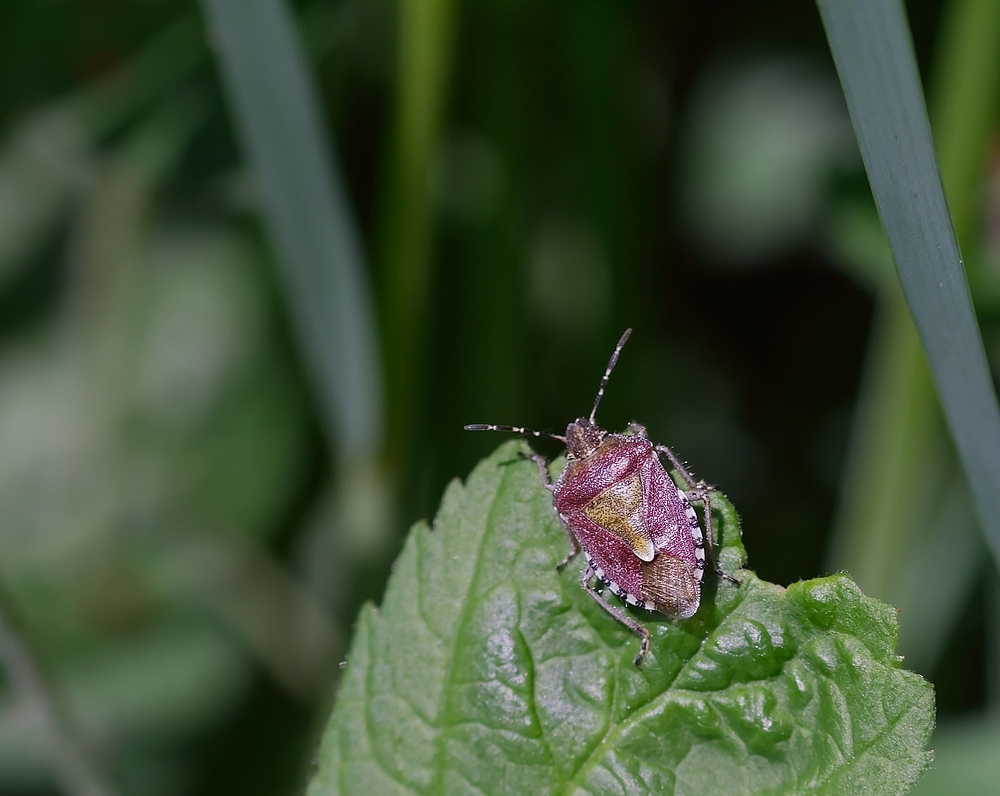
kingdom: Animalia
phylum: Arthropoda
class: Insecta
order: Hemiptera
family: Pentatomidae
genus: Dolycoris
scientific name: Dolycoris baccarum
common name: Sloe bug
